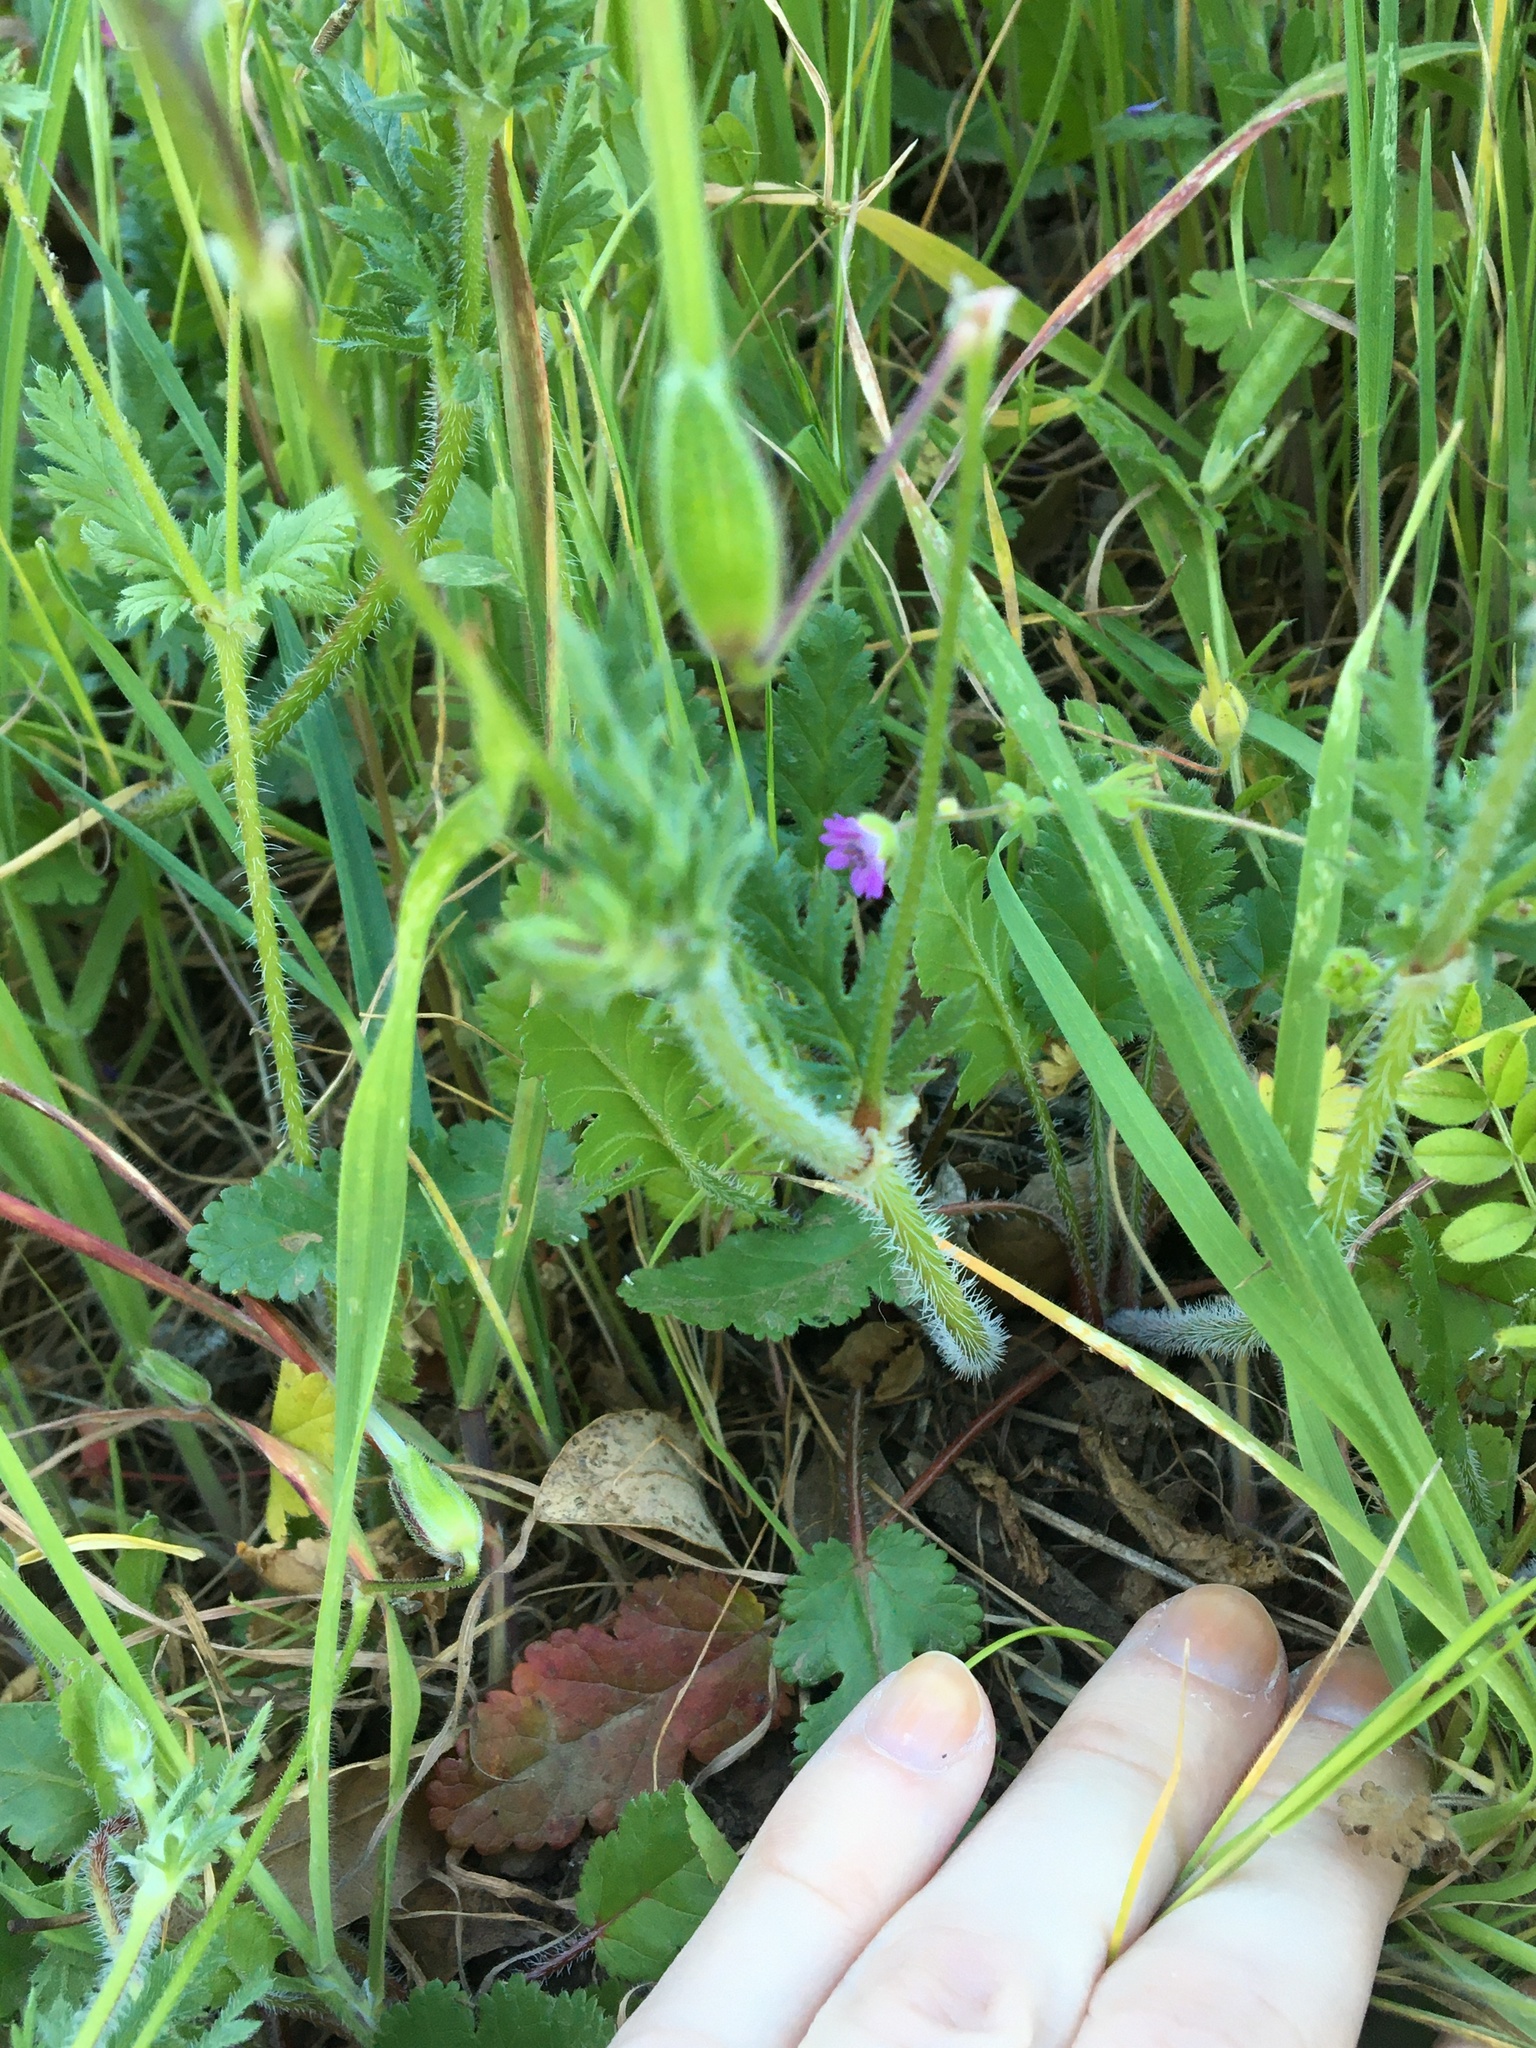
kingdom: Plantae
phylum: Tracheophyta
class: Magnoliopsida
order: Geraniales
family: Geraniaceae
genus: Erodium
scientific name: Erodium botrys
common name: Mediterranean stork's-bill
